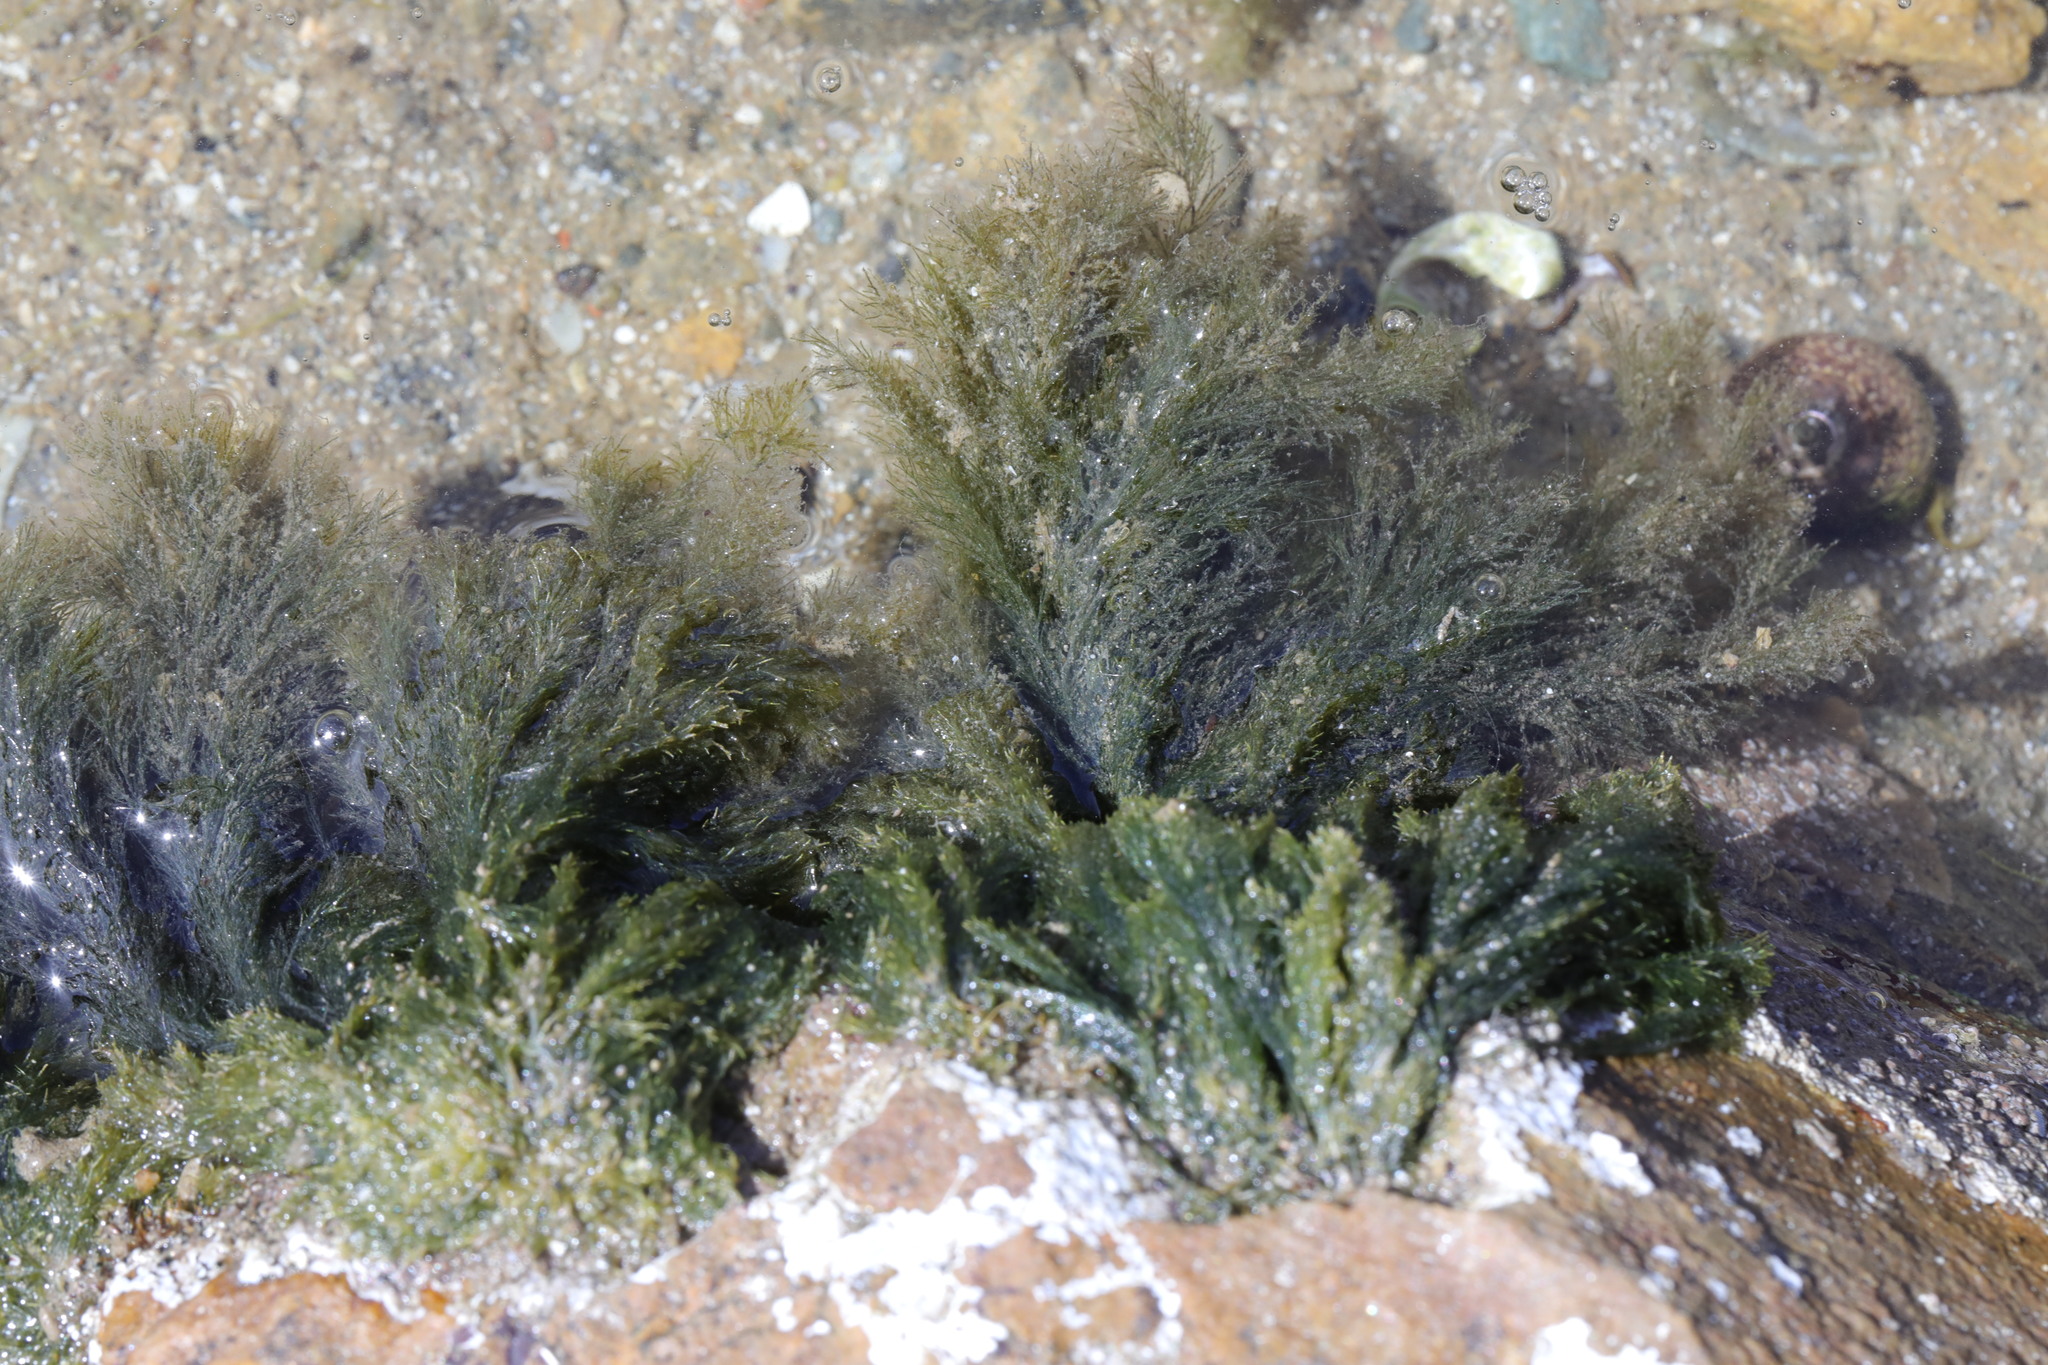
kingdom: Plantae
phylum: Chlorophyta
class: Ulvophyceae
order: Ulotrichales
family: Ulotrichaceae
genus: Acrosiphonia
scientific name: Acrosiphonia
